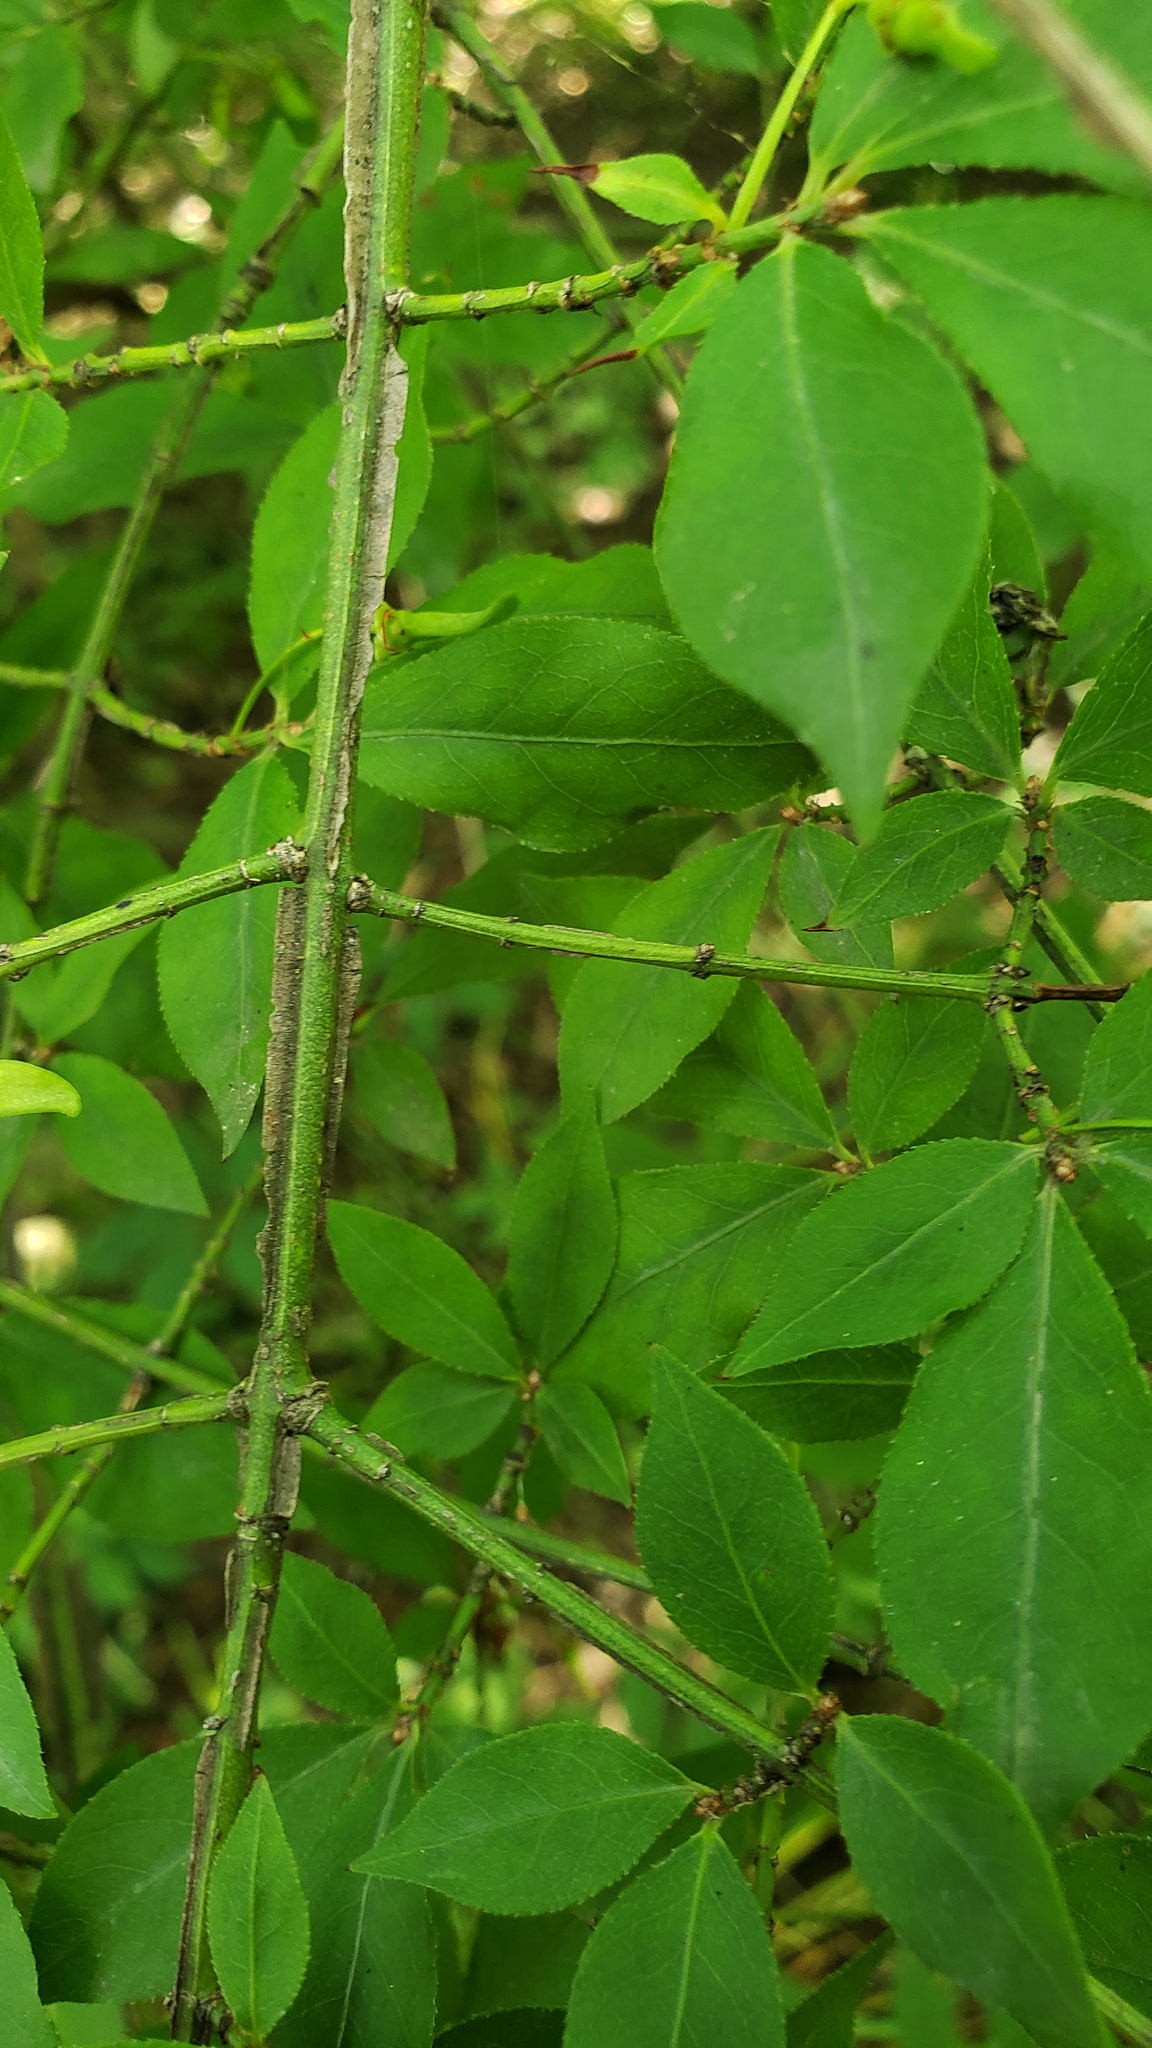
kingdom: Plantae
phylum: Tracheophyta
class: Magnoliopsida
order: Celastrales
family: Celastraceae
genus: Euonymus
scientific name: Euonymus alatus
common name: Winged euonymus
